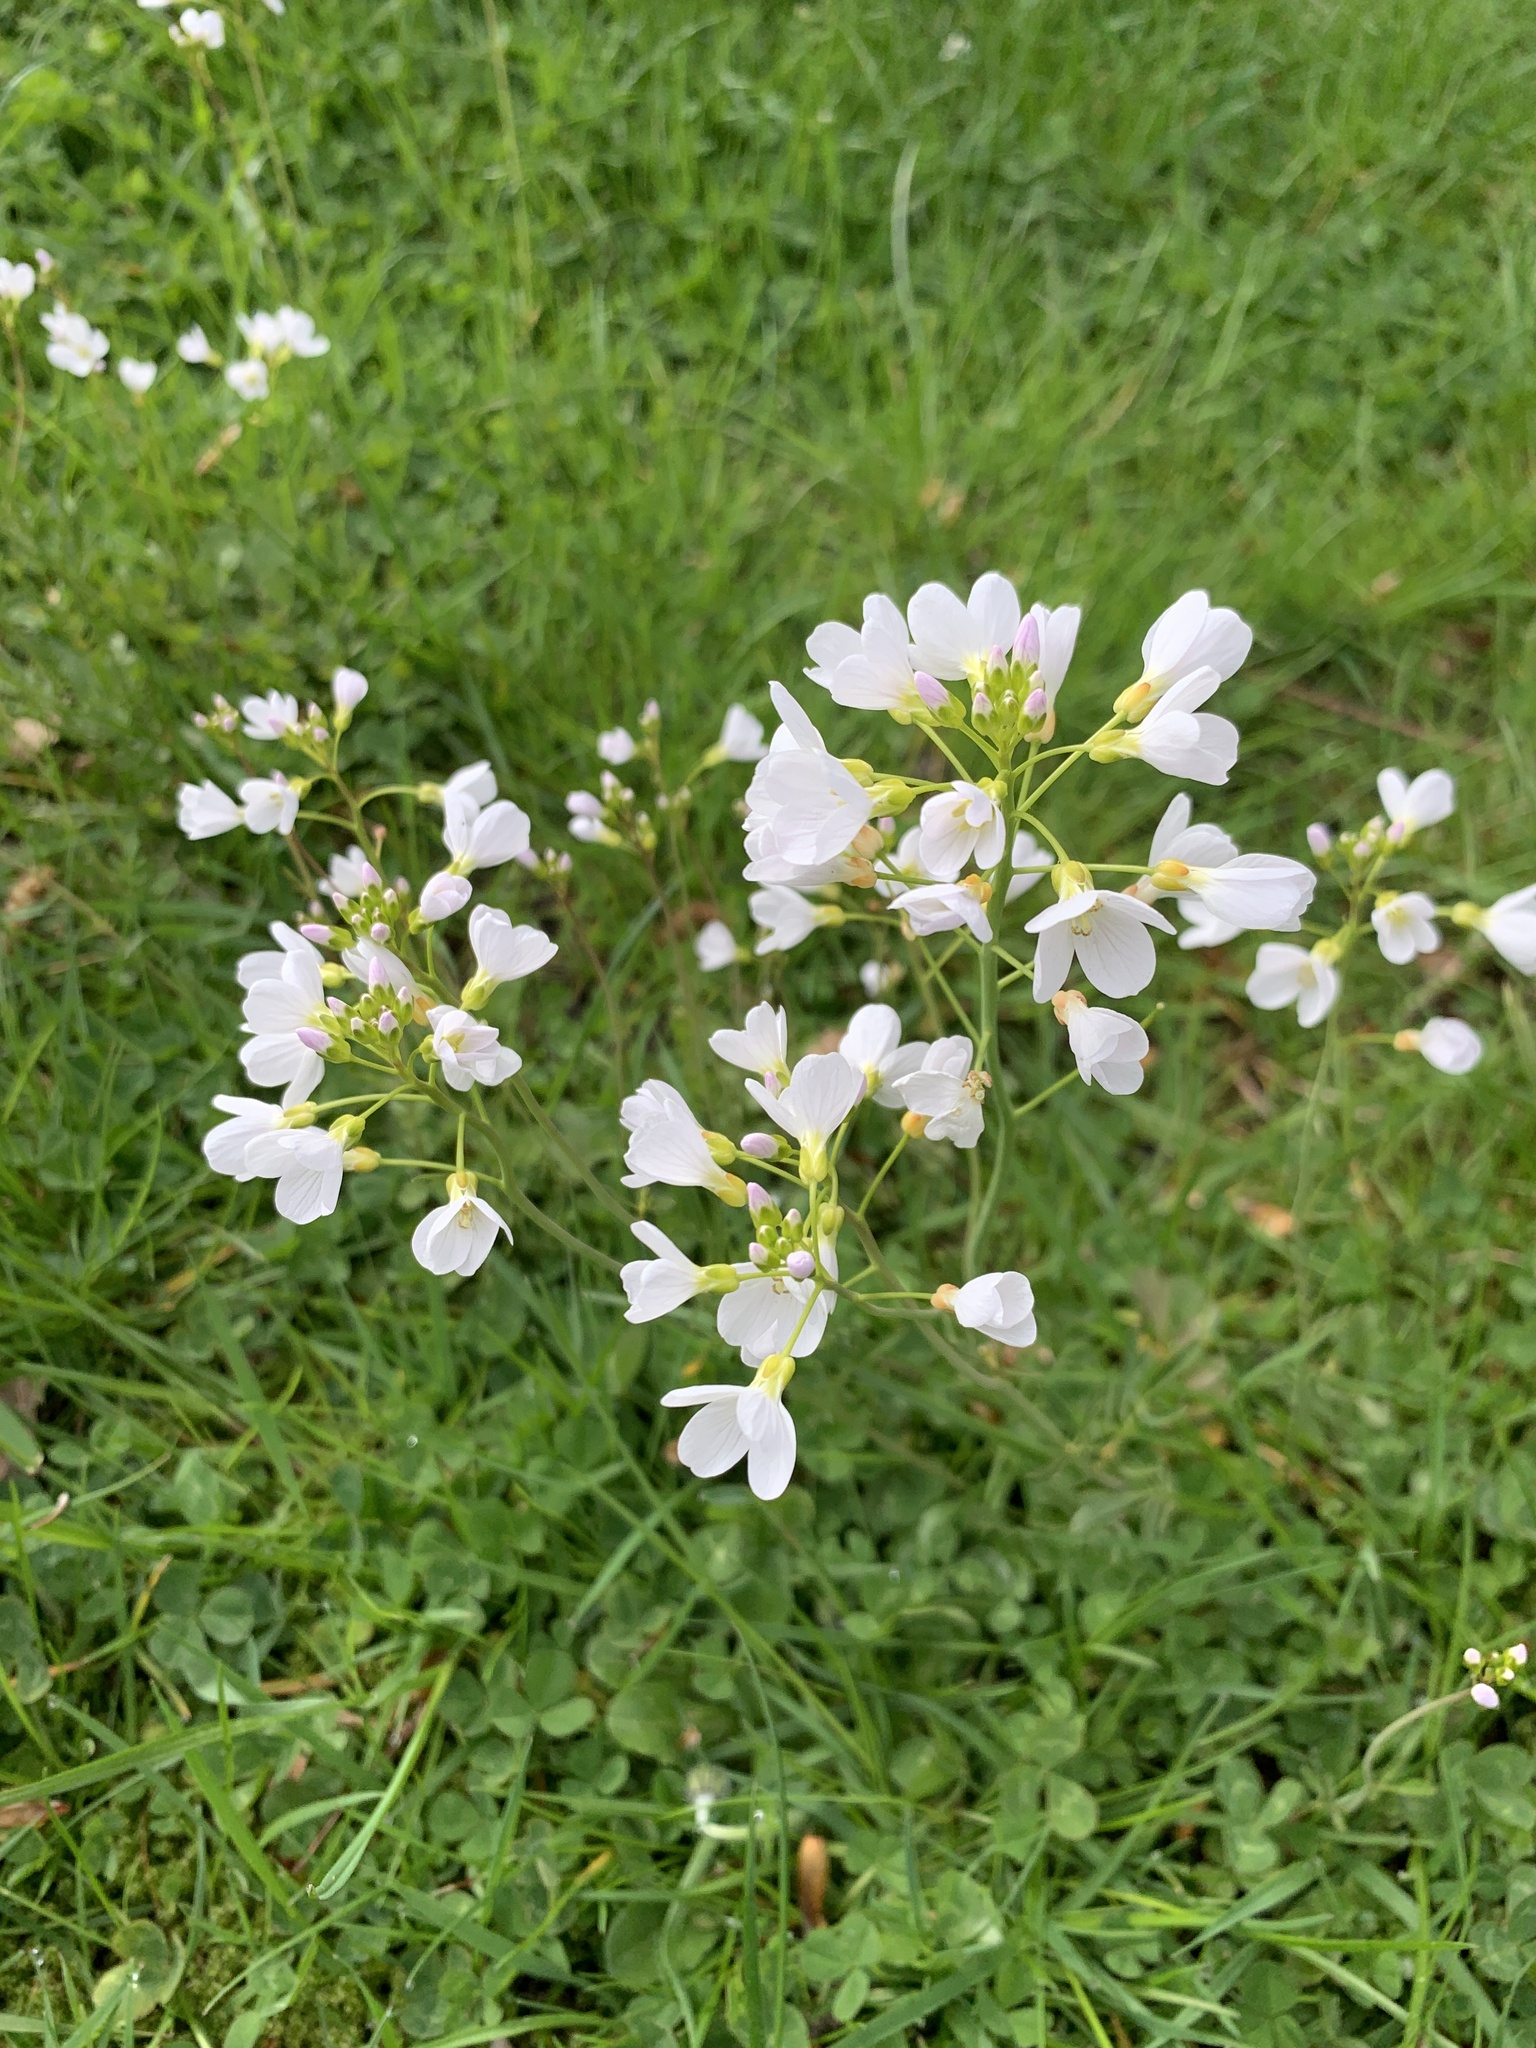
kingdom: Plantae
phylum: Tracheophyta
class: Magnoliopsida
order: Brassicales
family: Brassicaceae
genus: Cardamine
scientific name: Cardamine pratensis
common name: Cuckoo flower
